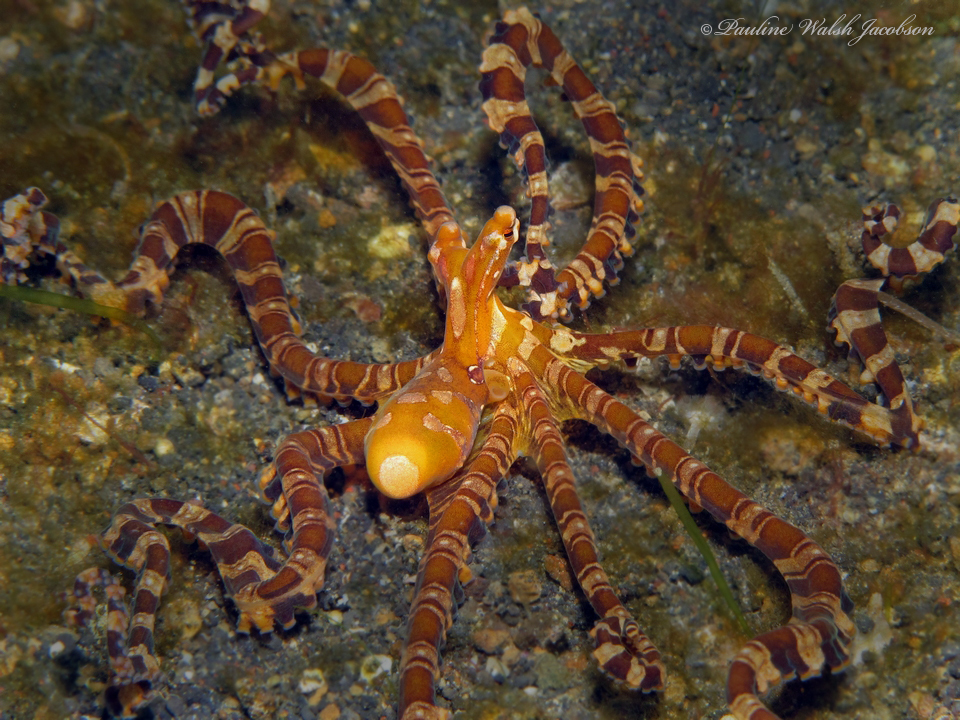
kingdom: Animalia
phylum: Mollusca
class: Cephalopoda
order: Octopoda
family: Octopodidae
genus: Wunderpus
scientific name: Wunderpus photogenicus
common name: Wunderpus
